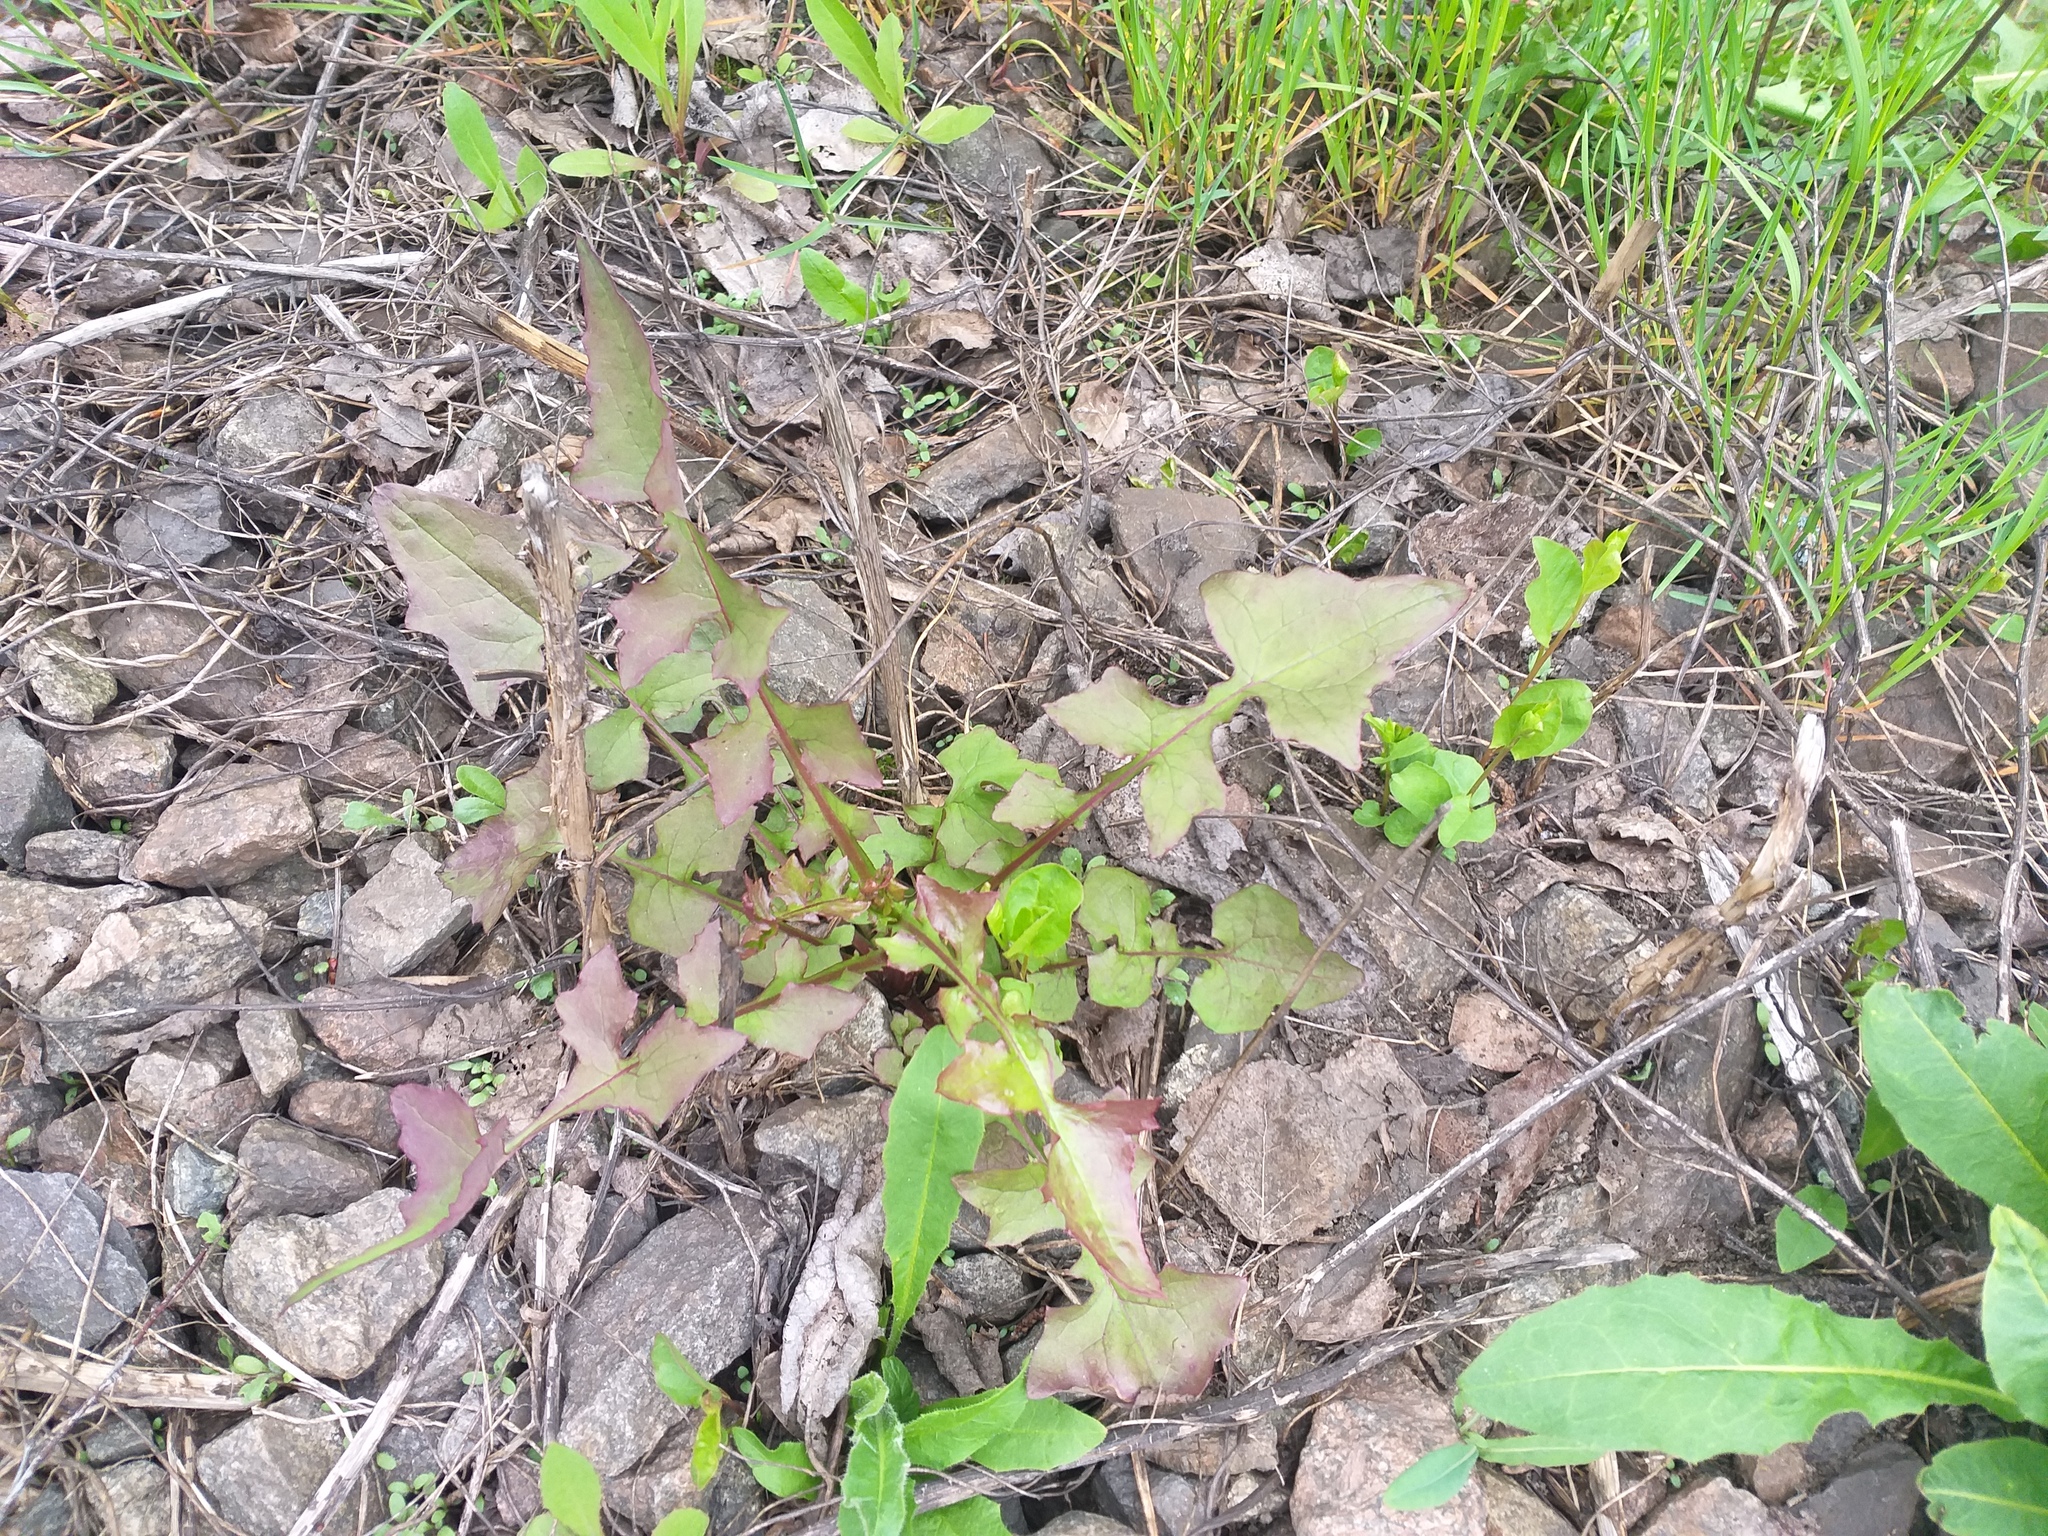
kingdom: Plantae
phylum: Tracheophyta
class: Magnoliopsida
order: Asterales
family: Asteraceae
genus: Mycelis
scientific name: Mycelis muralis
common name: Wall lettuce
